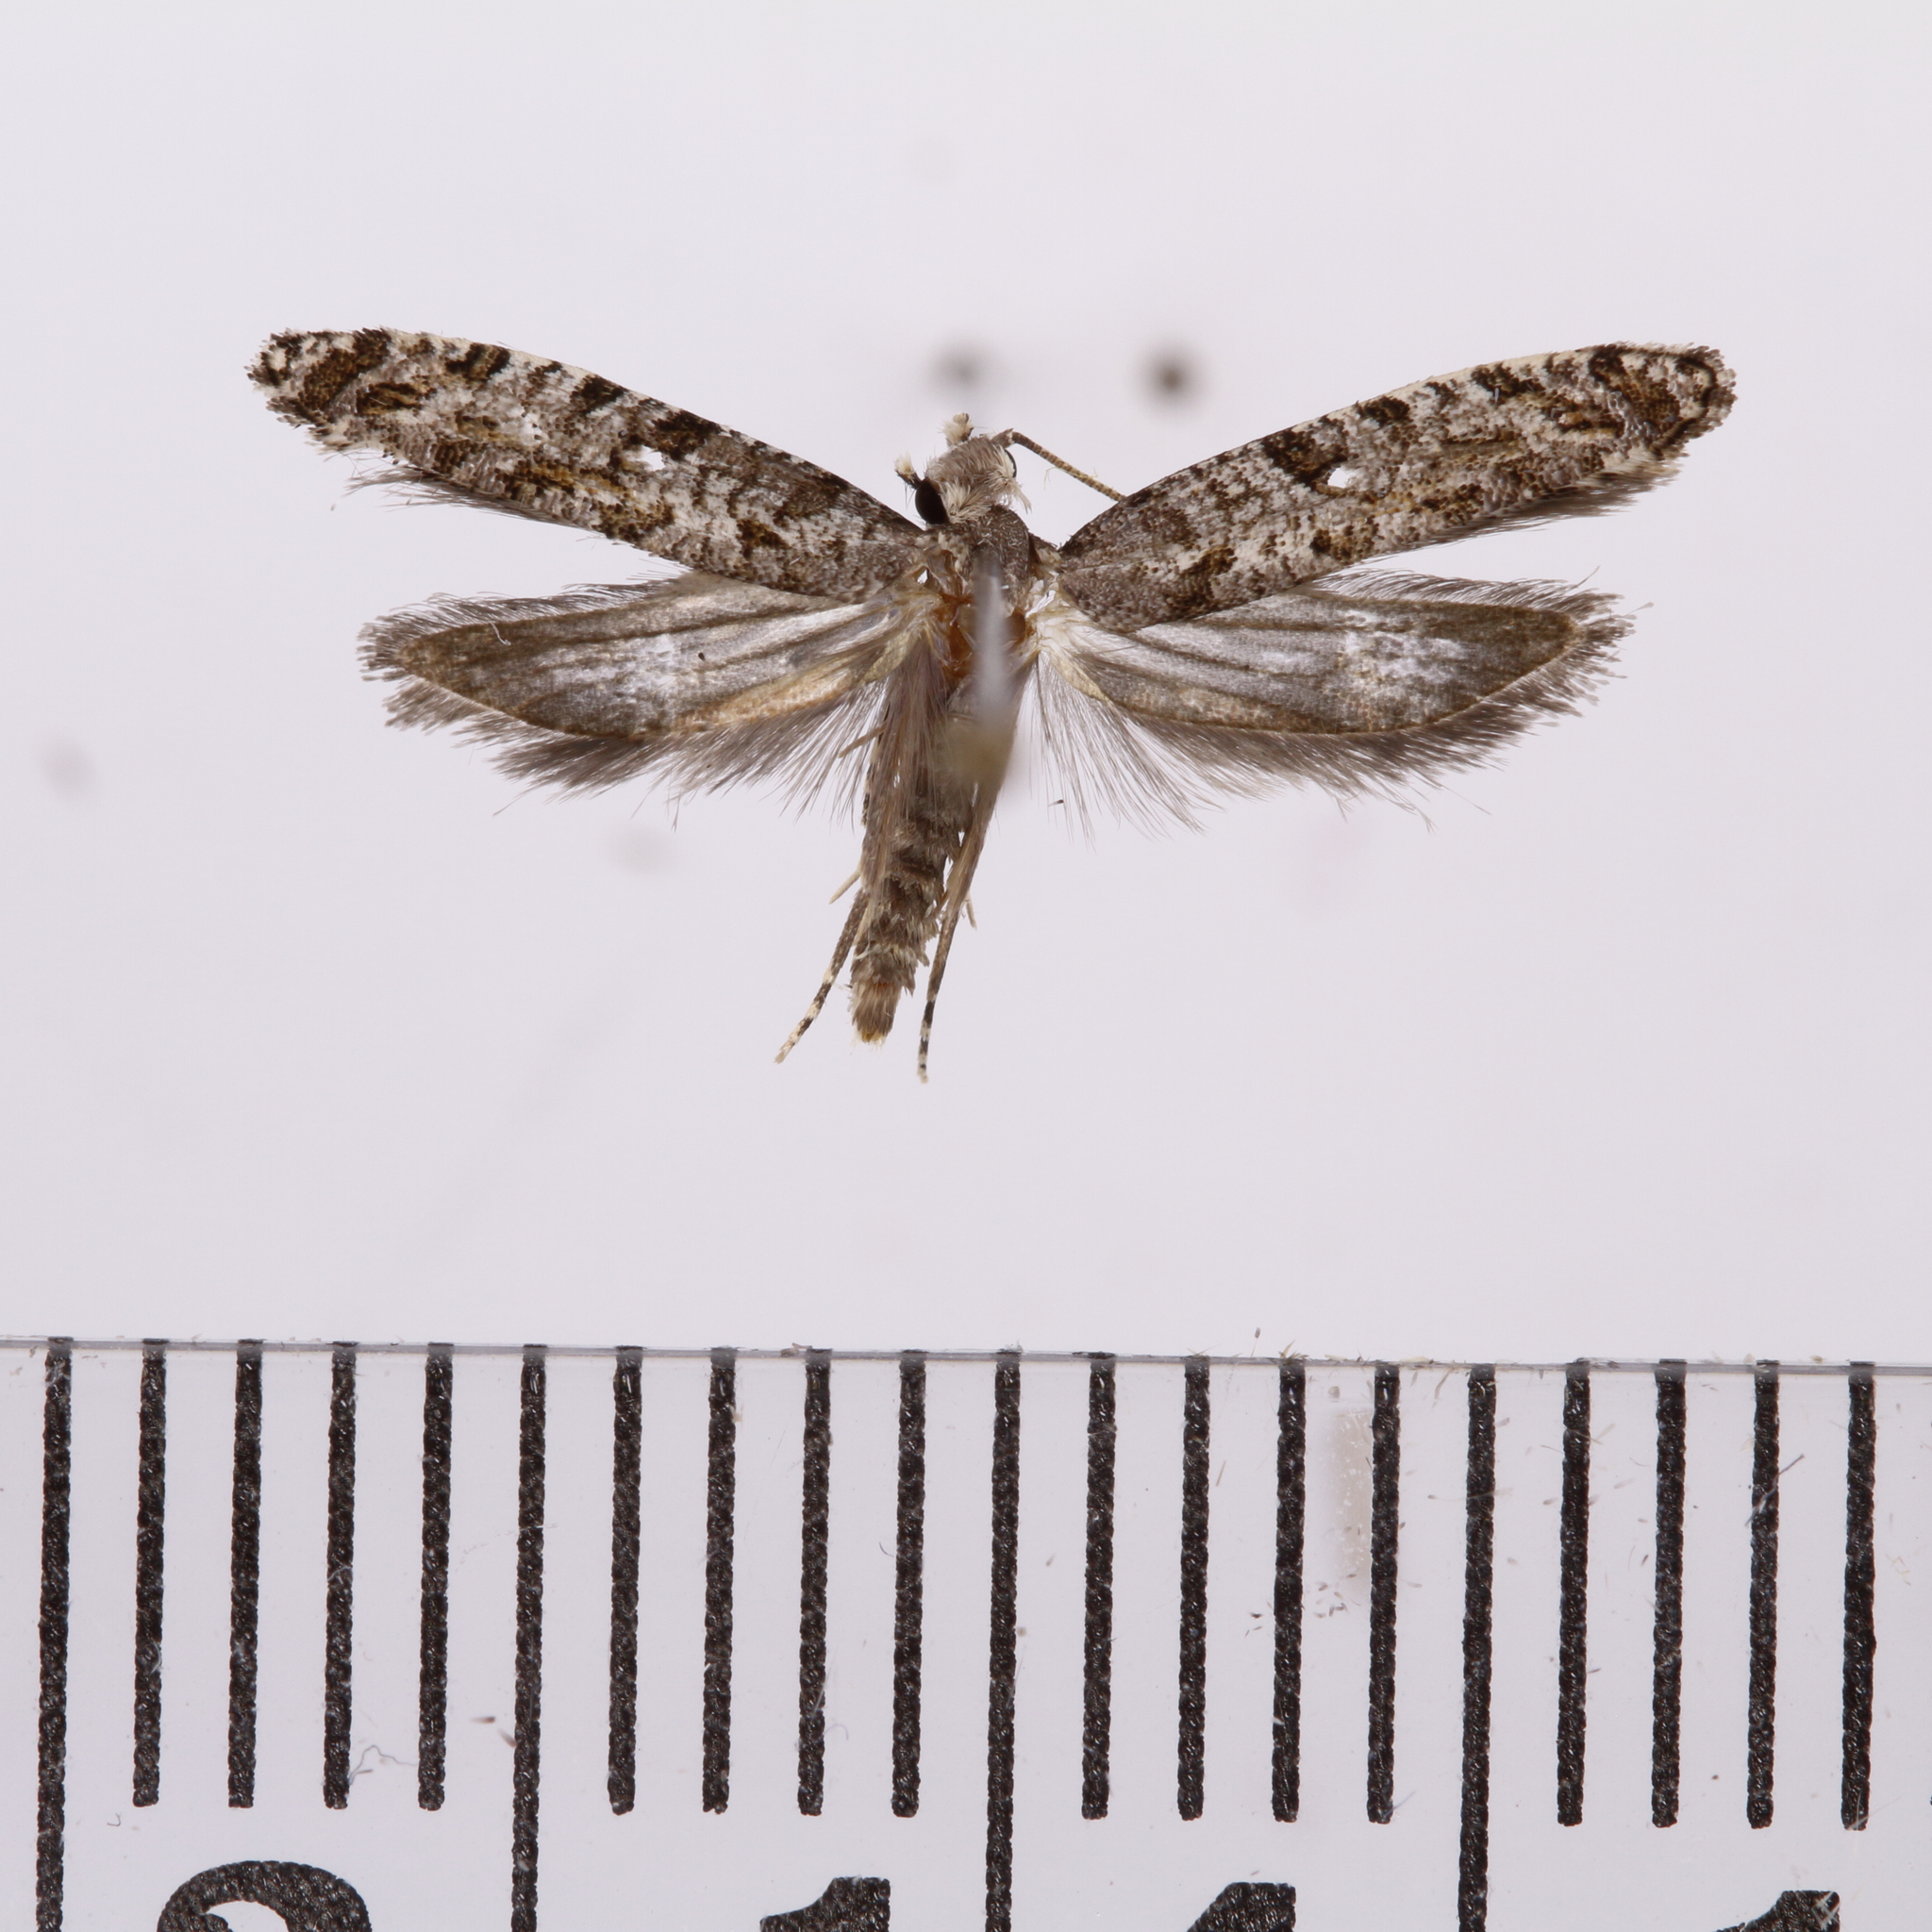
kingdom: Animalia
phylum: Arthropoda
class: Insecta
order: Lepidoptera
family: Tineidae
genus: Archyala
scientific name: Archyala paraglypta
